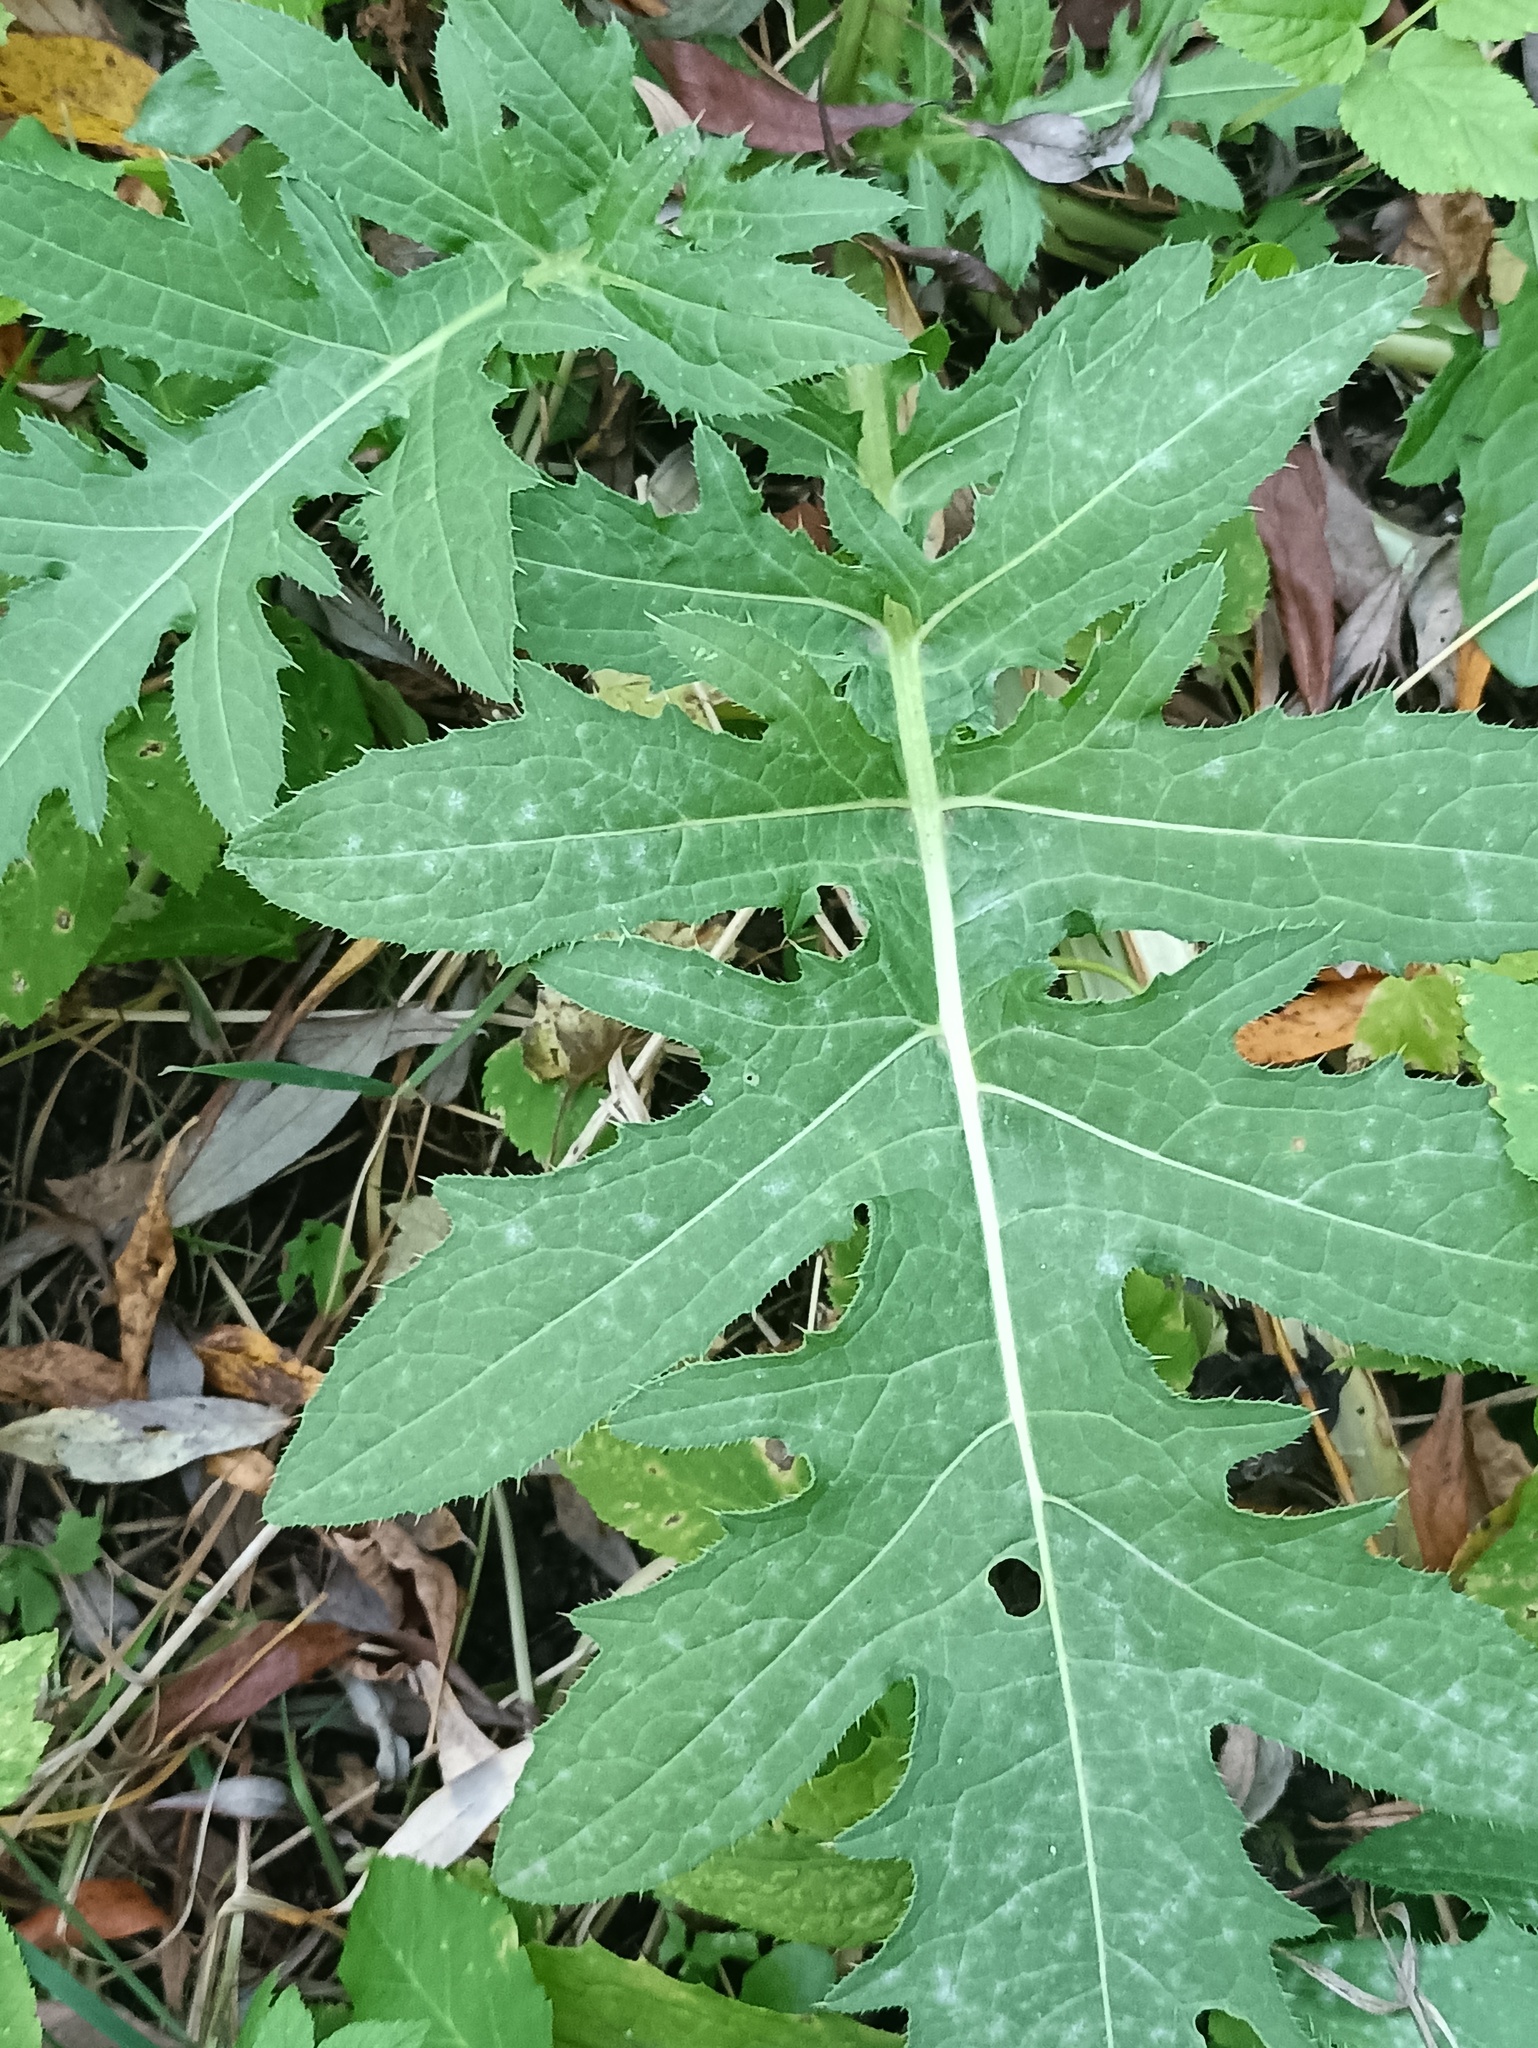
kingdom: Plantae
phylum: Tracheophyta
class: Magnoliopsida
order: Asterales
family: Asteraceae
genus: Cirsium
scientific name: Cirsium oleraceum
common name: Cabbage thistle
